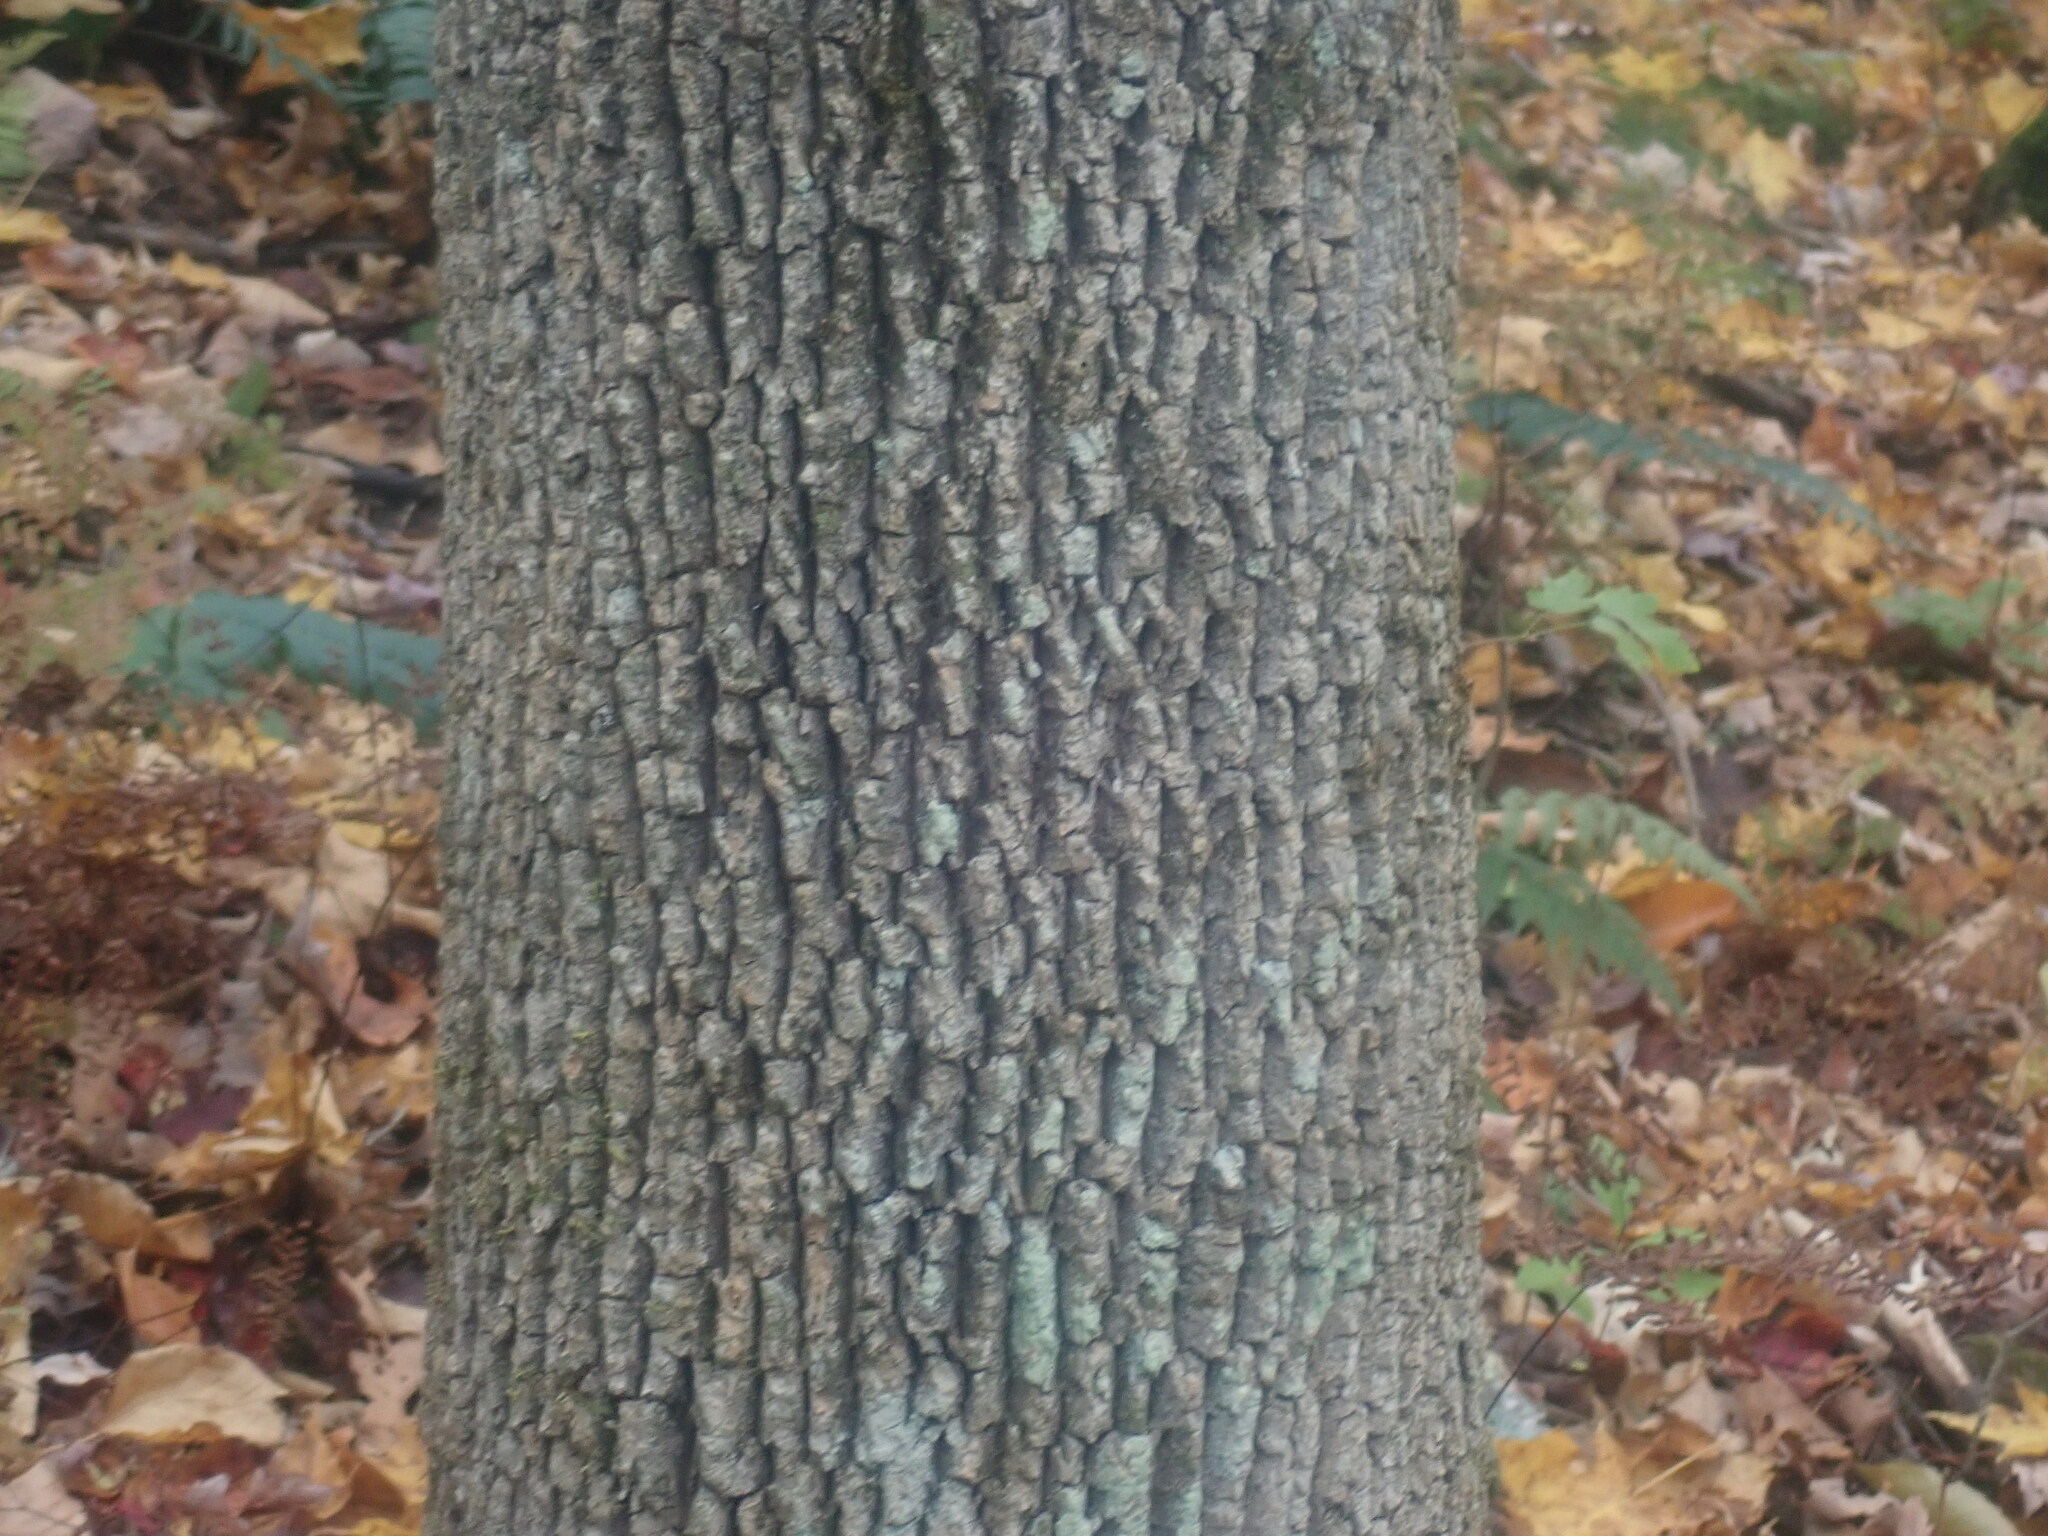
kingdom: Plantae
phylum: Tracheophyta
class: Magnoliopsida
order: Lamiales
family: Oleaceae
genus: Fraxinus
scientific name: Fraxinus americana
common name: White ash
